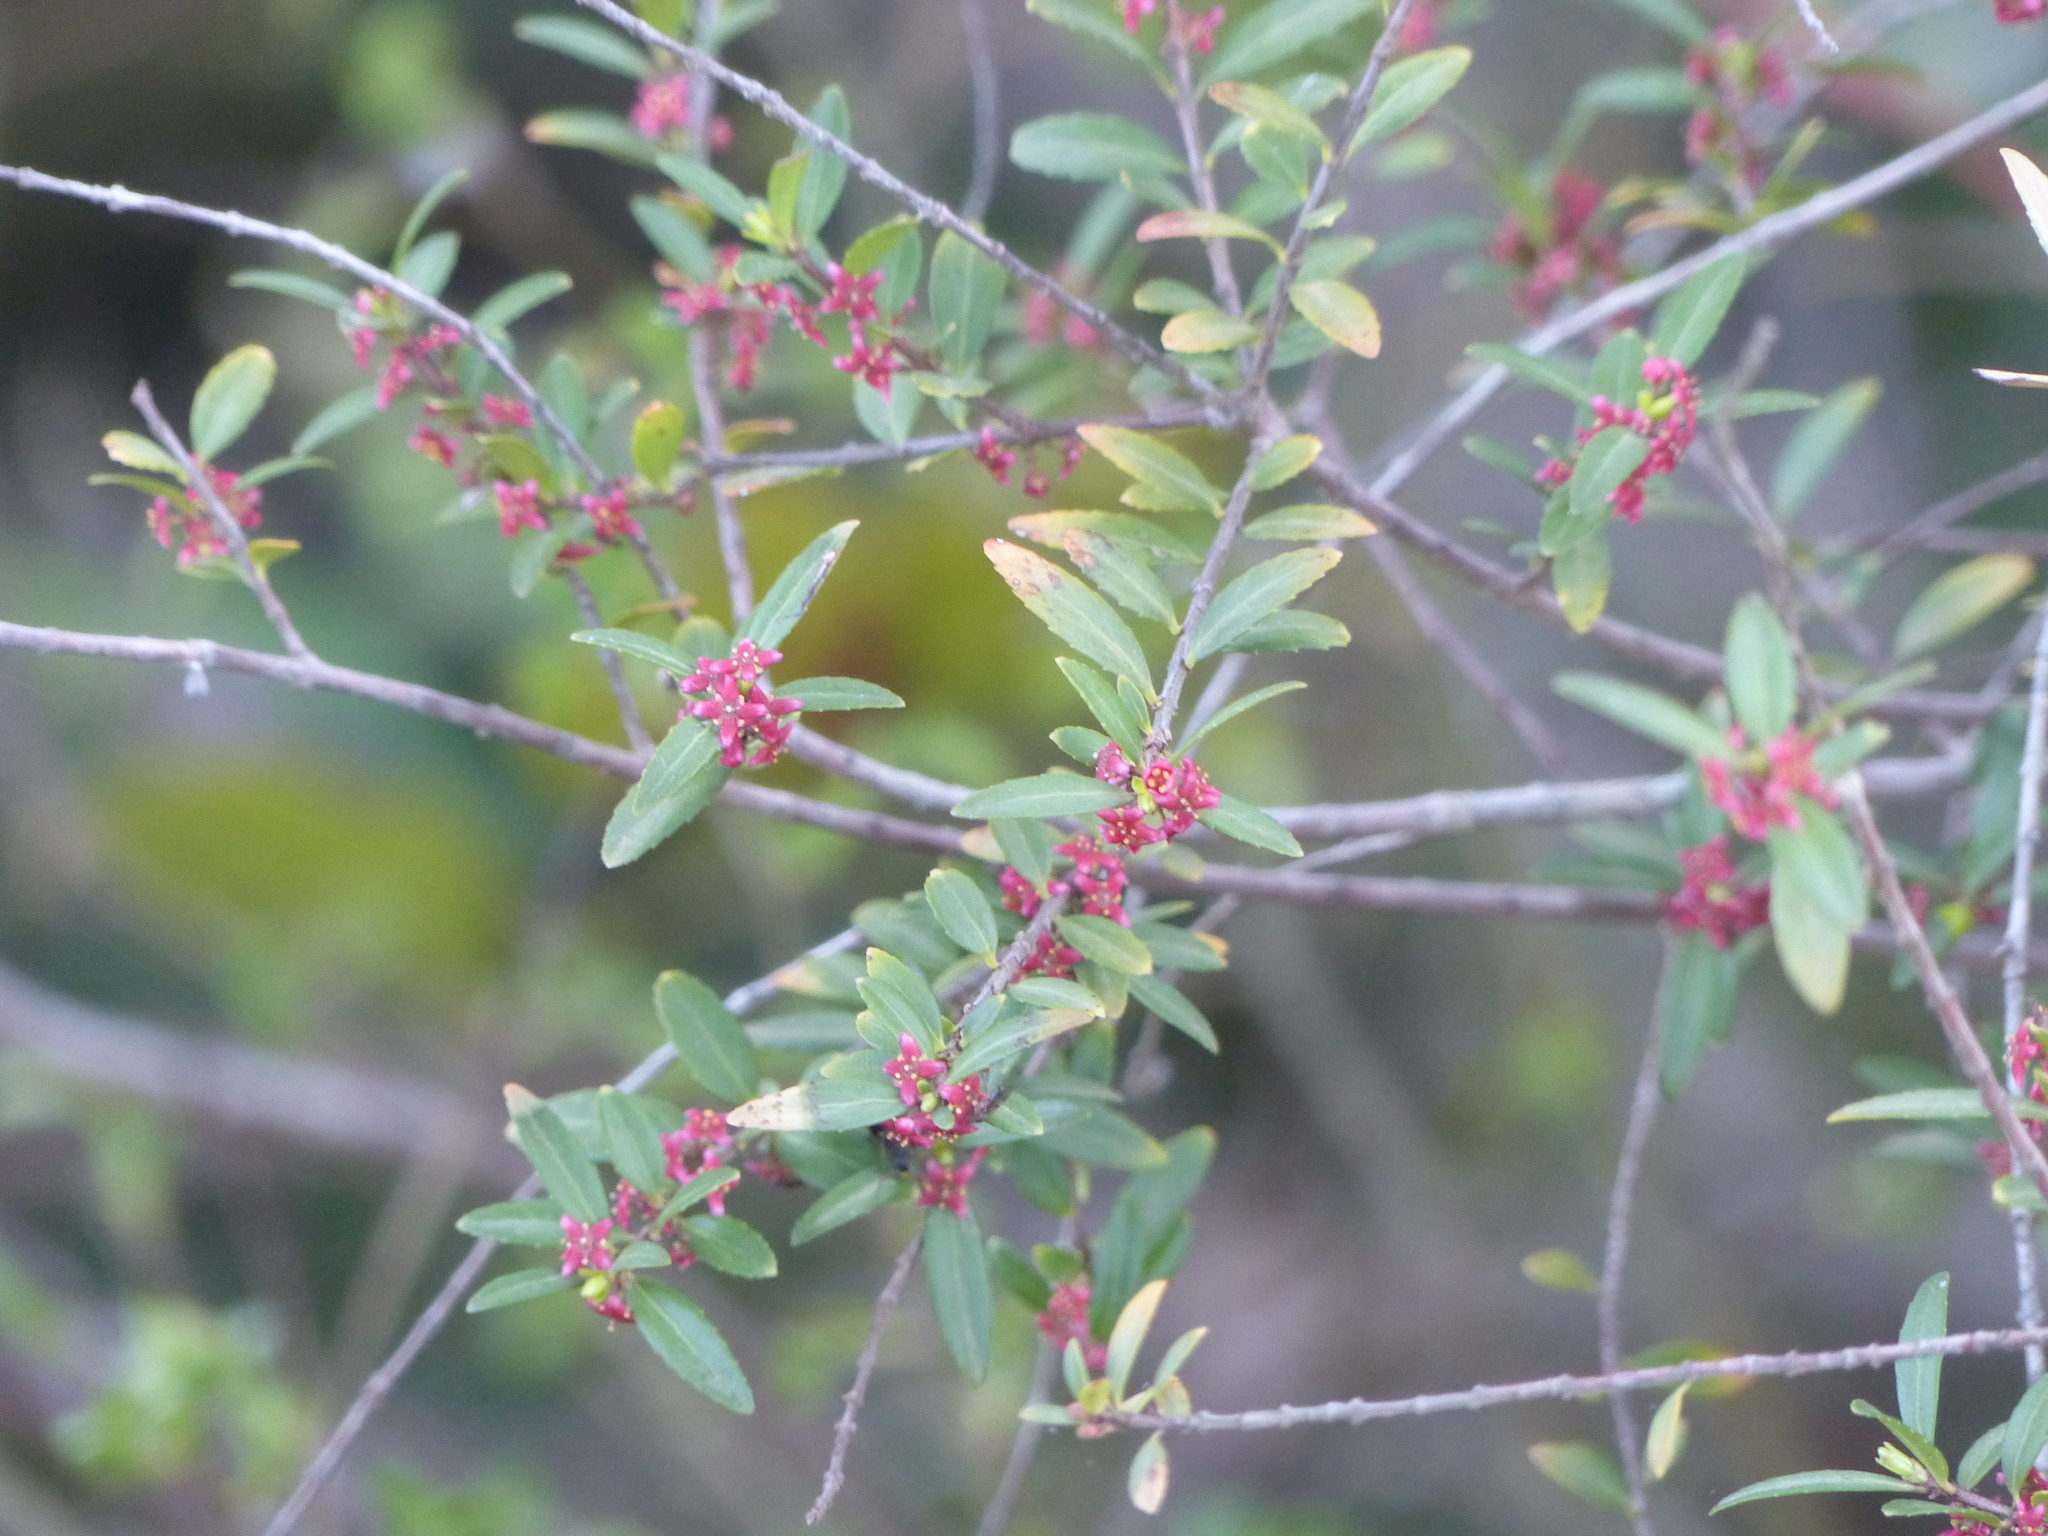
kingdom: Plantae
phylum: Tracheophyta
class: Magnoliopsida
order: Celastrales
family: Celastraceae
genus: Paxistima
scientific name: Paxistima myrsinites
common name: Mountain-lover
